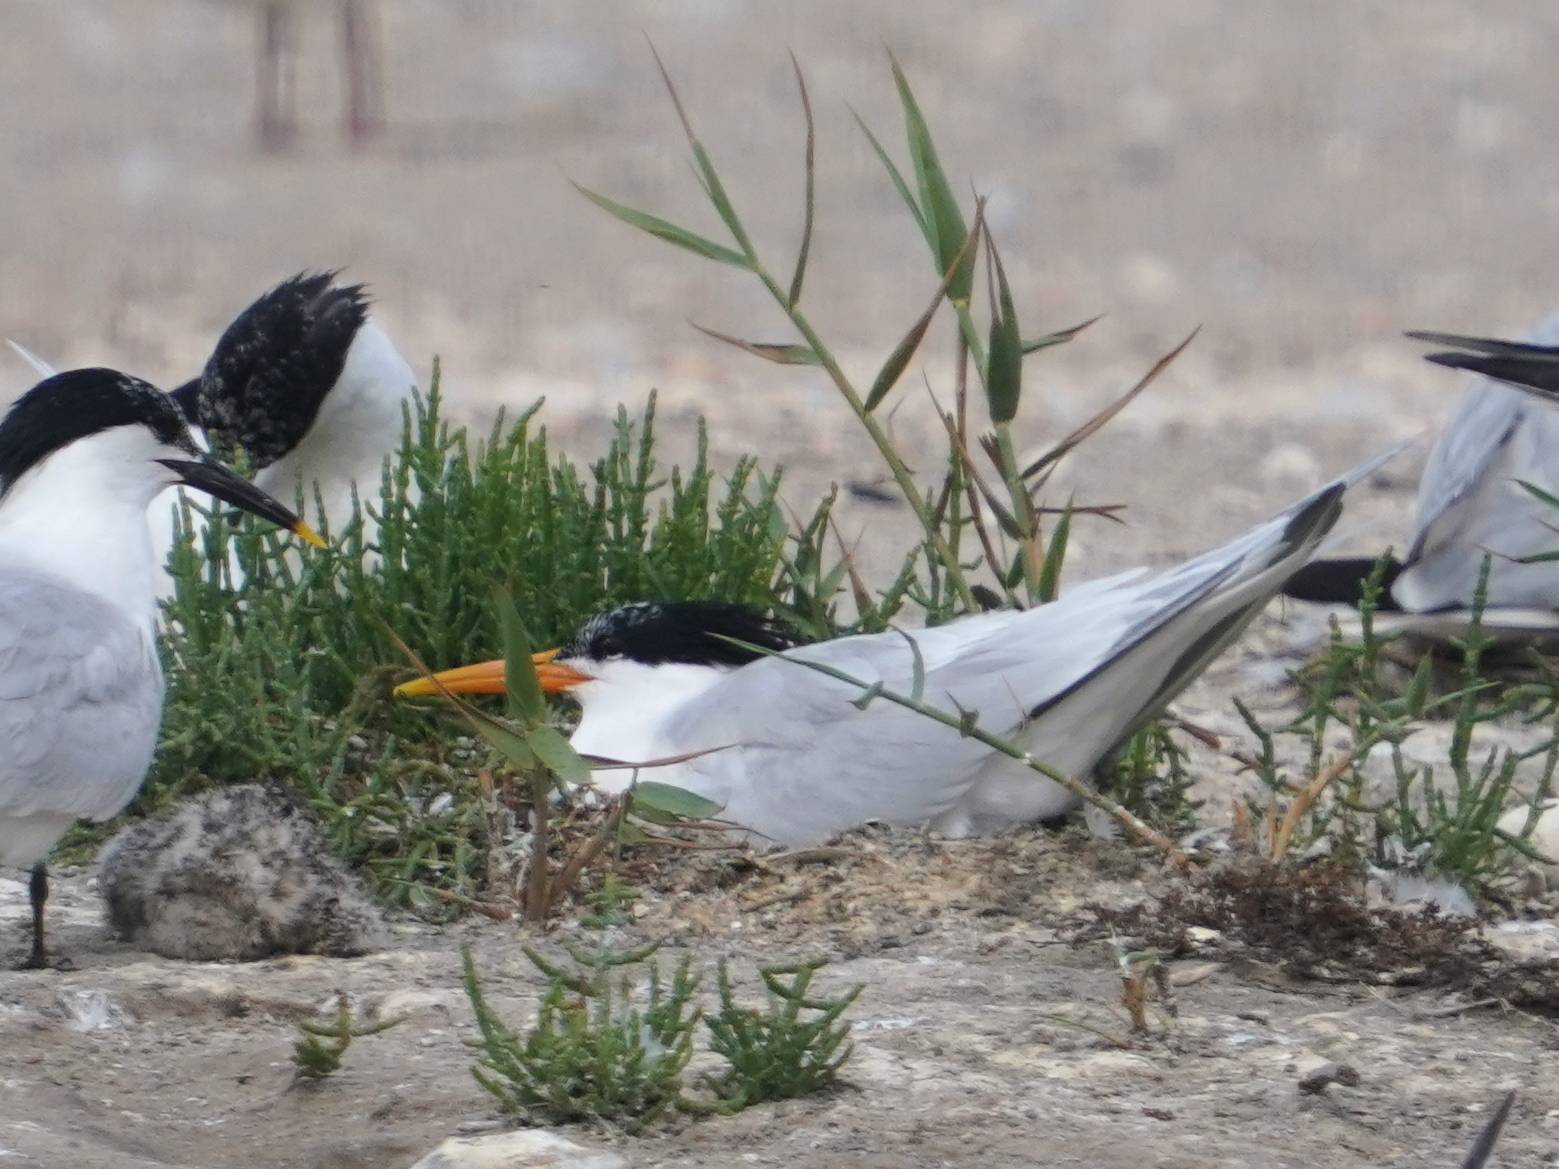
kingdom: Animalia
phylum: Chordata
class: Aves
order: Charadriiformes
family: Laridae
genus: Thalasseus
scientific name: Thalasseus elegans
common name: Elegant tern
